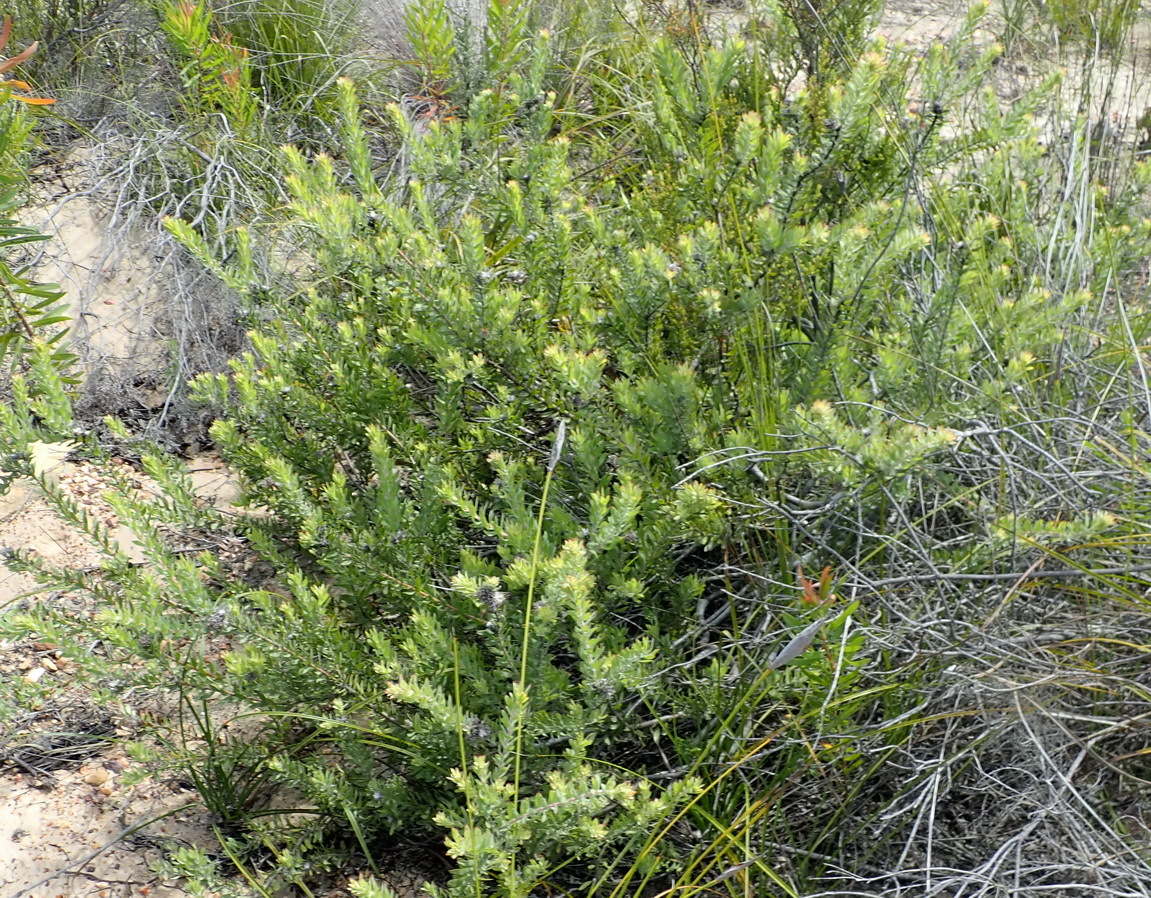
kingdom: Plantae
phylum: Tracheophyta
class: Magnoliopsida
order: Proteales
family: Proteaceae
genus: Leucospermum
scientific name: Leucospermum wittebergense
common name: Swartberg pincushion
